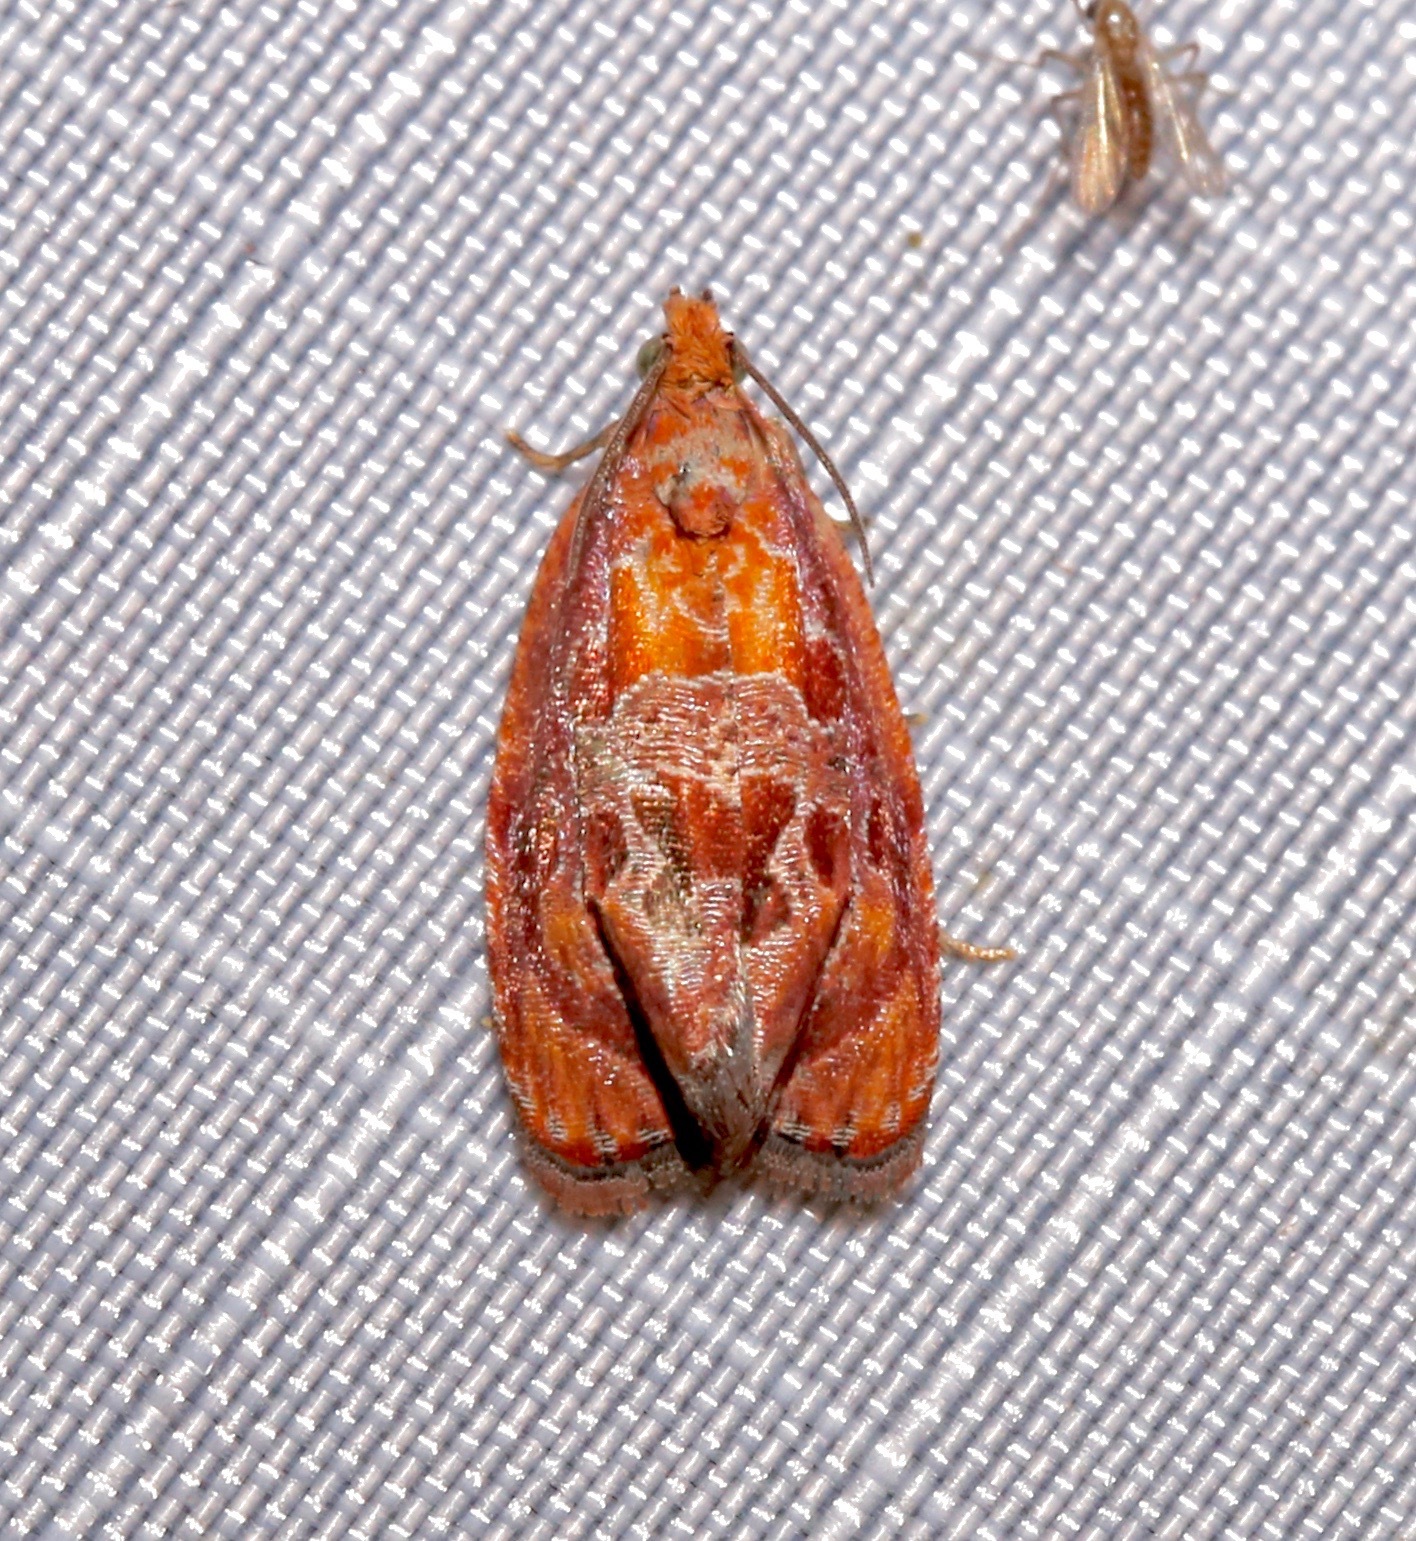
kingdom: Animalia
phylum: Arthropoda
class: Insecta
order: Lepidoptera
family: Tortricidae
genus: Zomaria
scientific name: Zomaria andromedana
